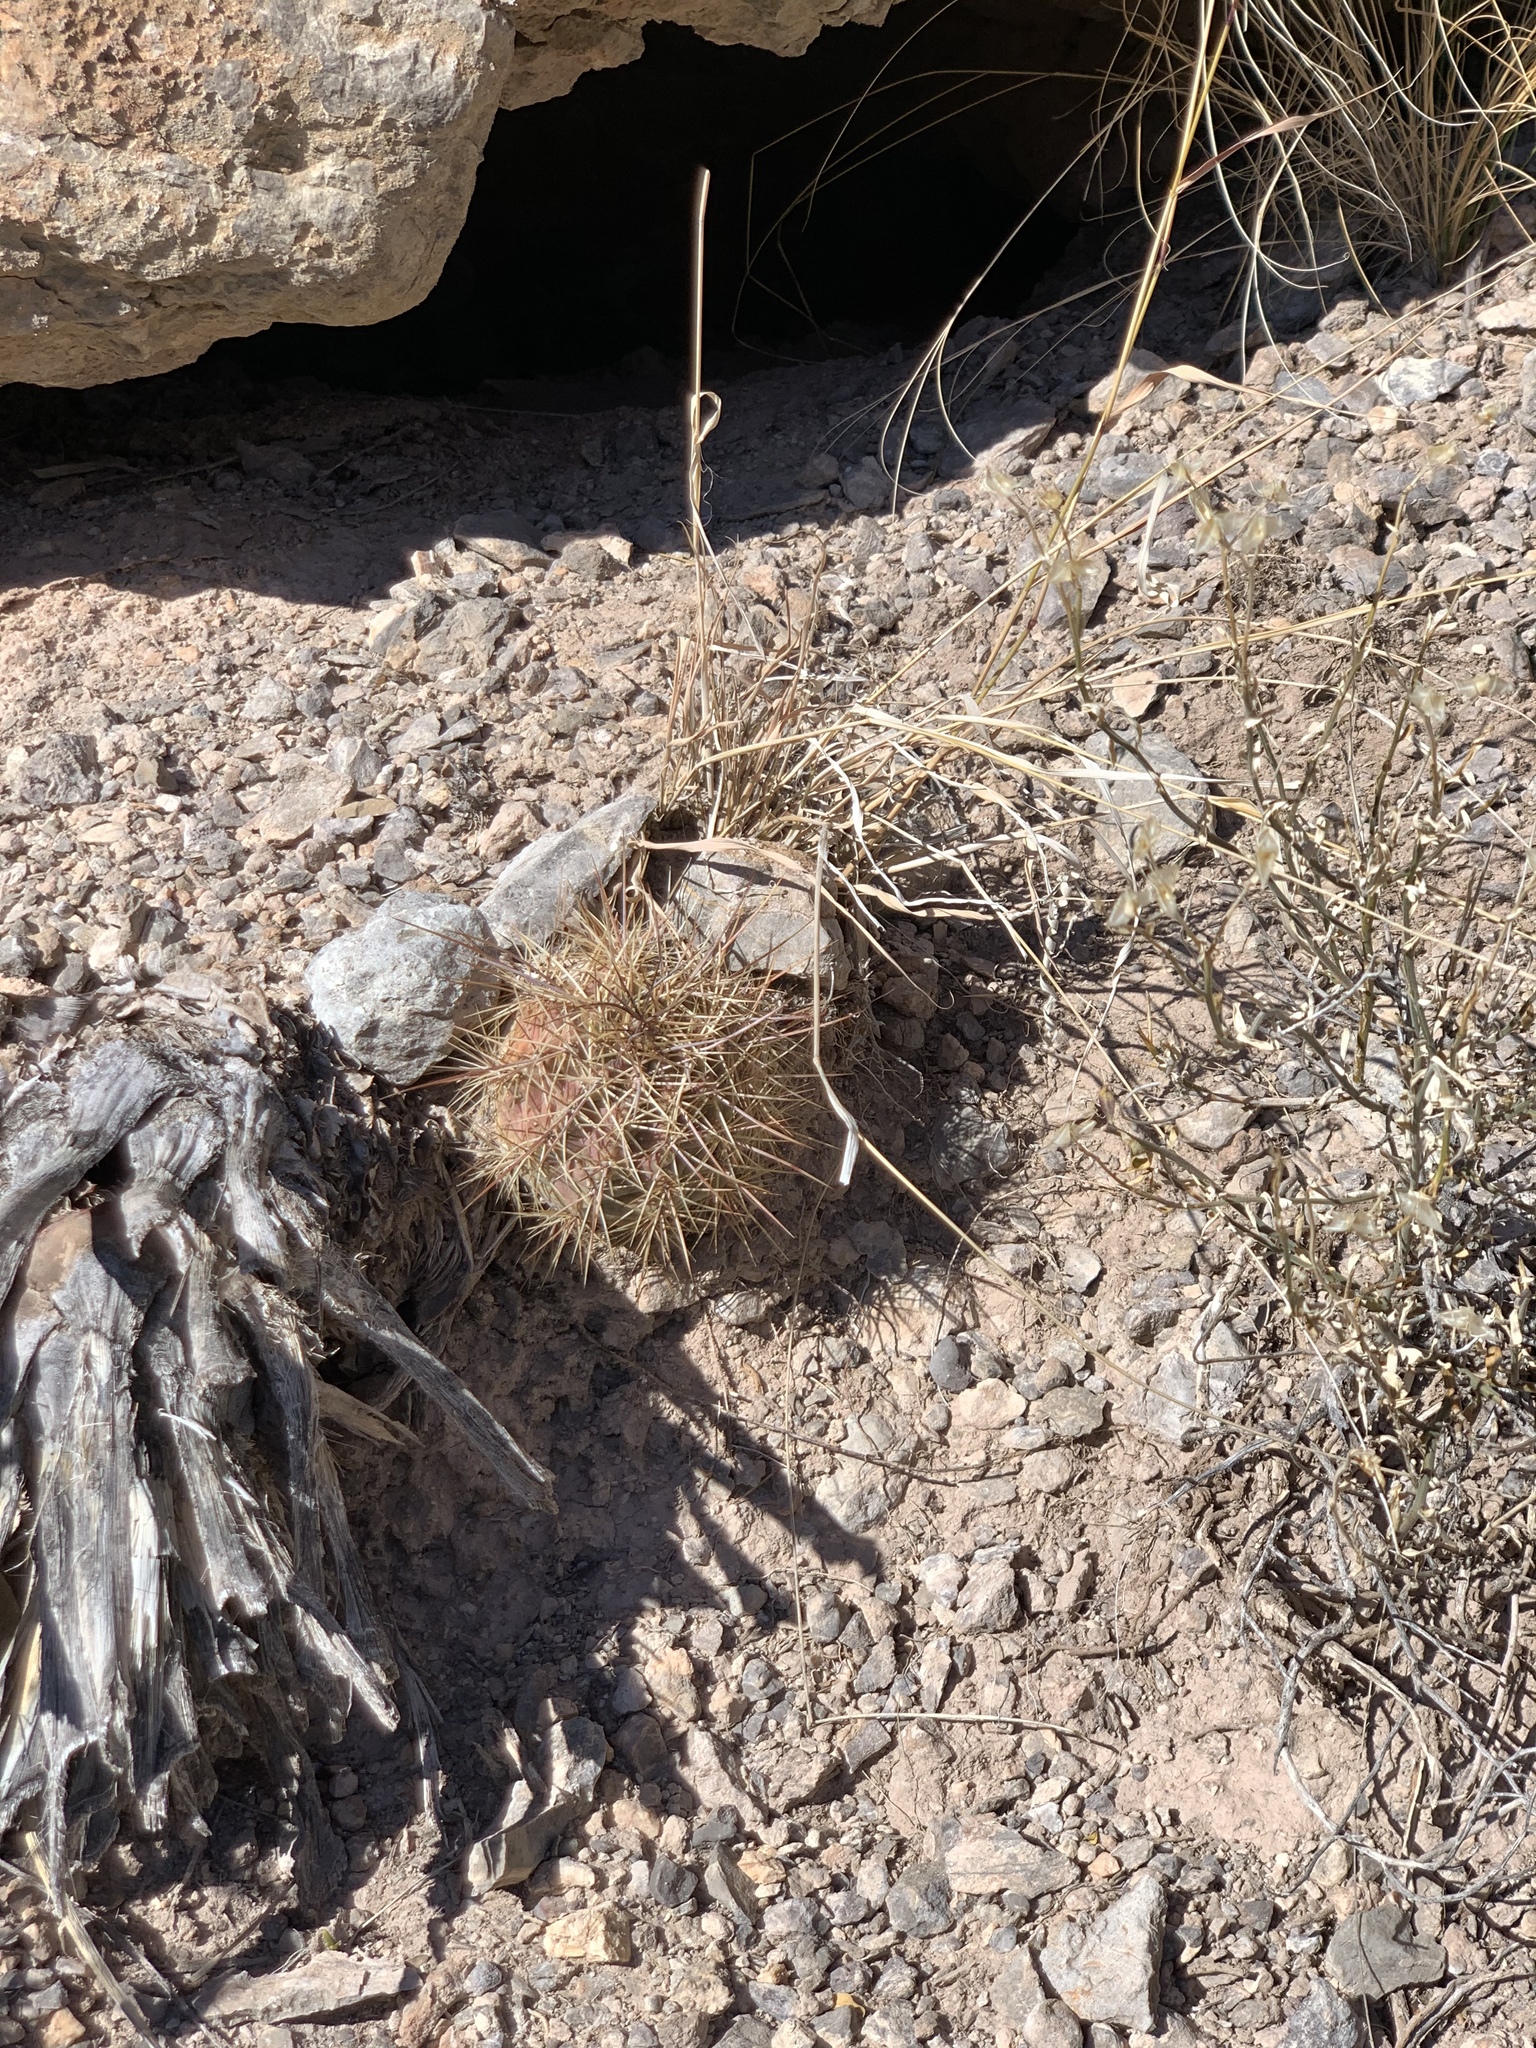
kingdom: Plantae
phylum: Tracheophyta
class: Magnoliopsida
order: Caryophyllales
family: Cactaceae
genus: Echinocereus
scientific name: Echinocereus coccineus
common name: Scarlet hedgehog cactus
